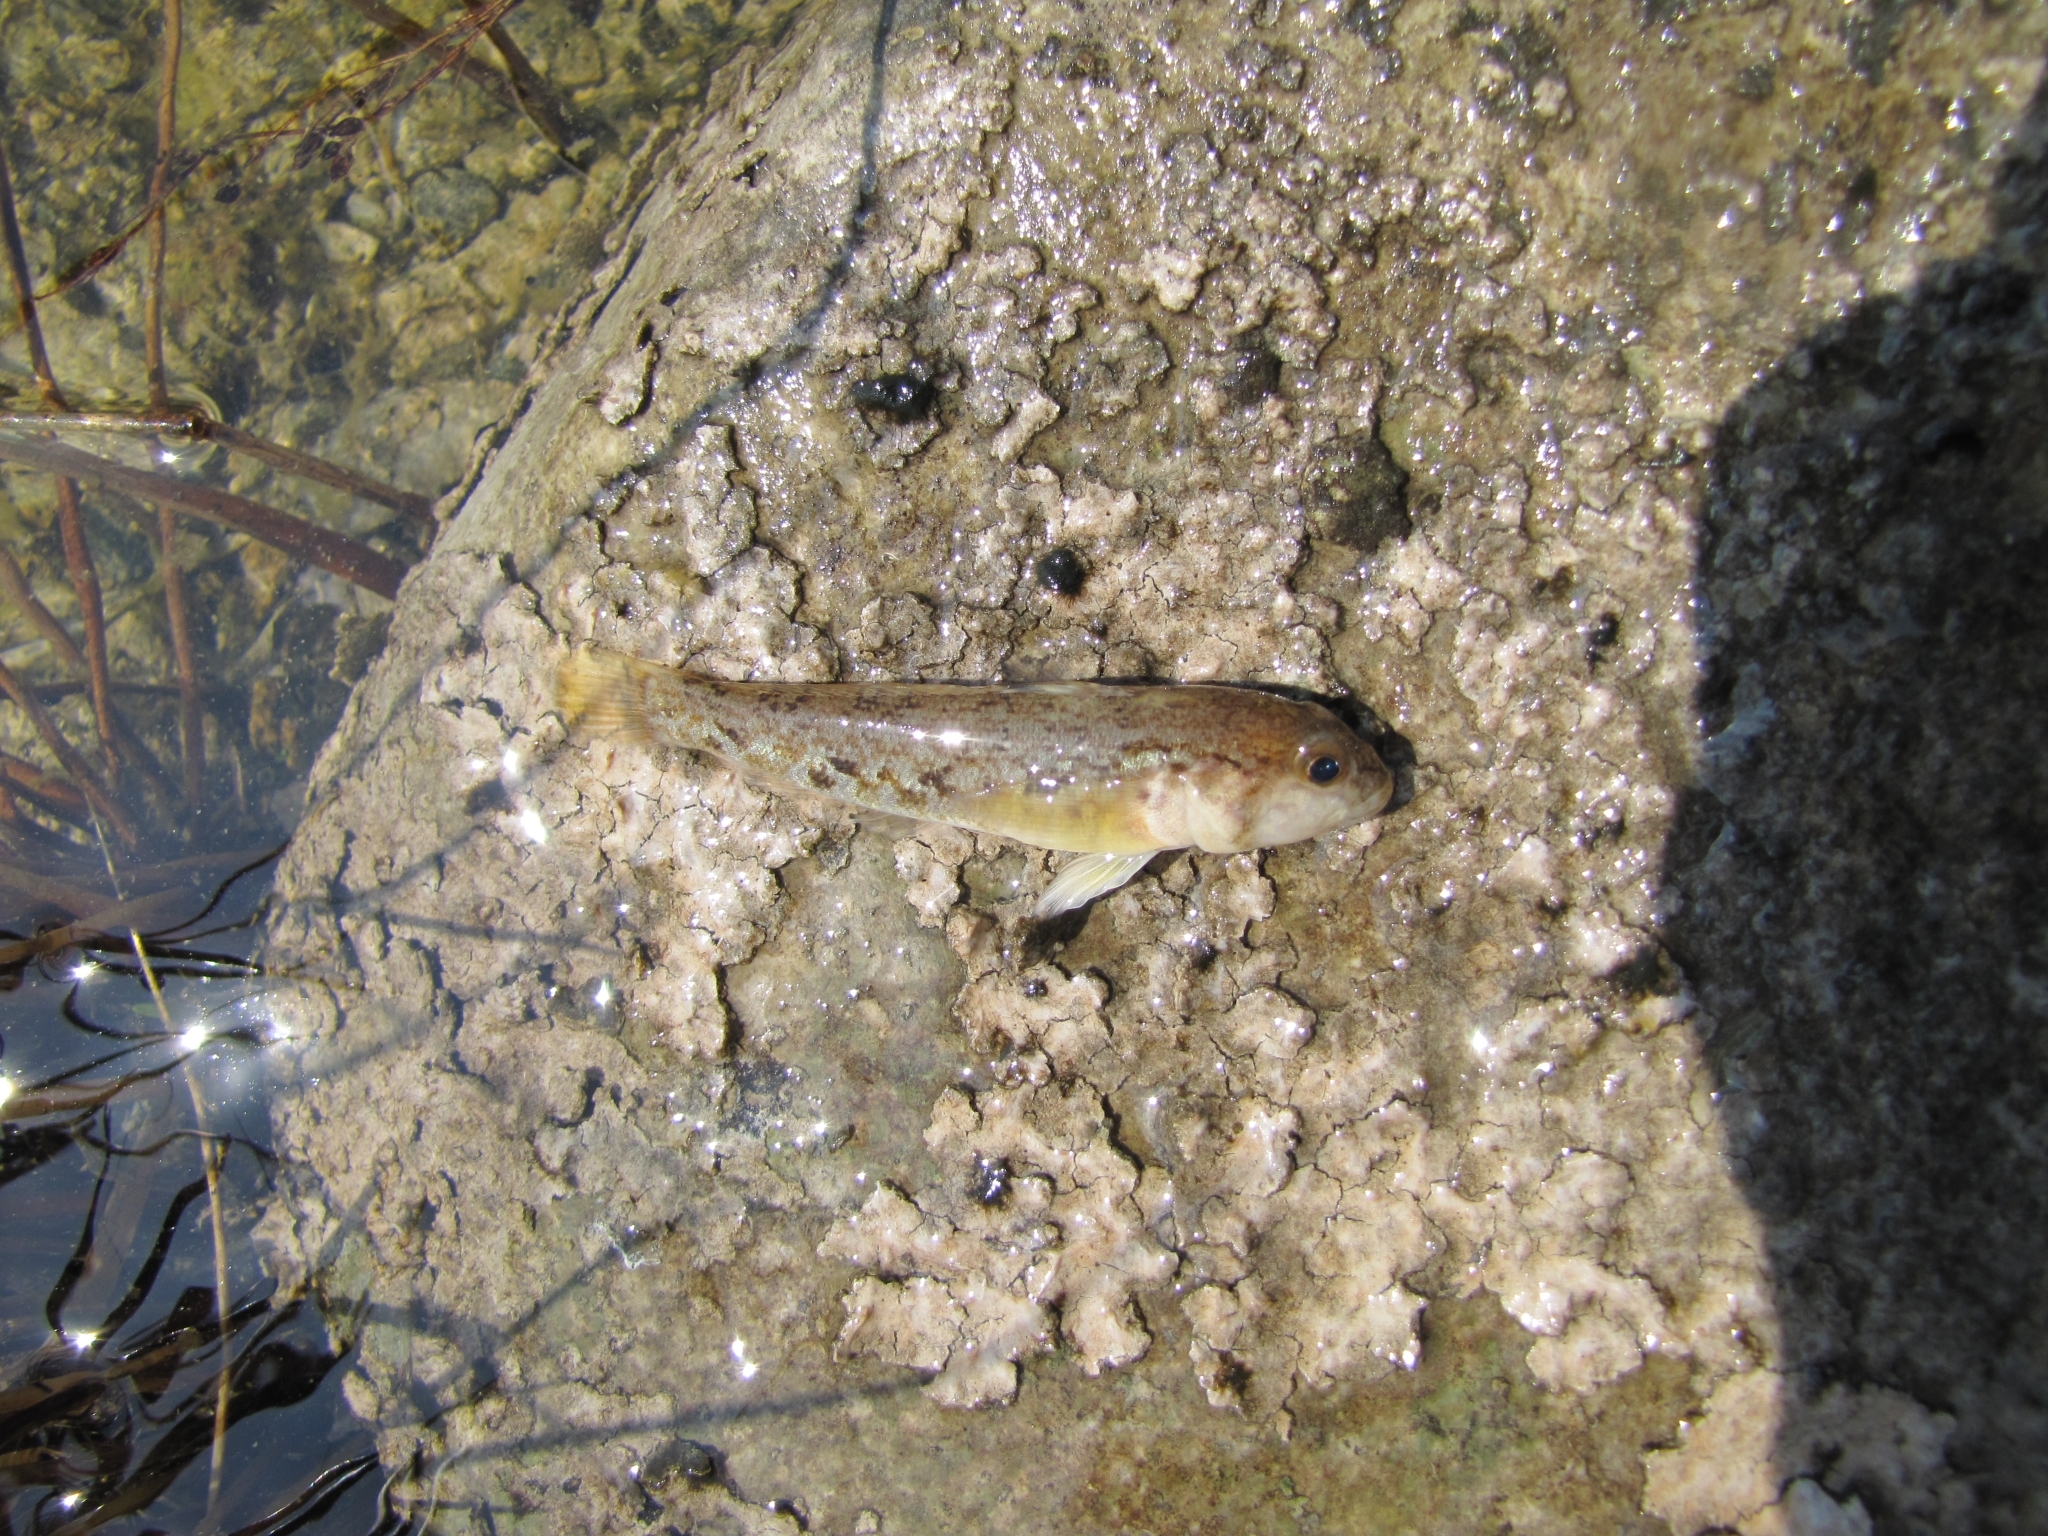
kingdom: Animalia
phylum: Chordata
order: Perciformes
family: Gobiidae
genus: Neogobius
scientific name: Neogobius melanostomus
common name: Round goby
